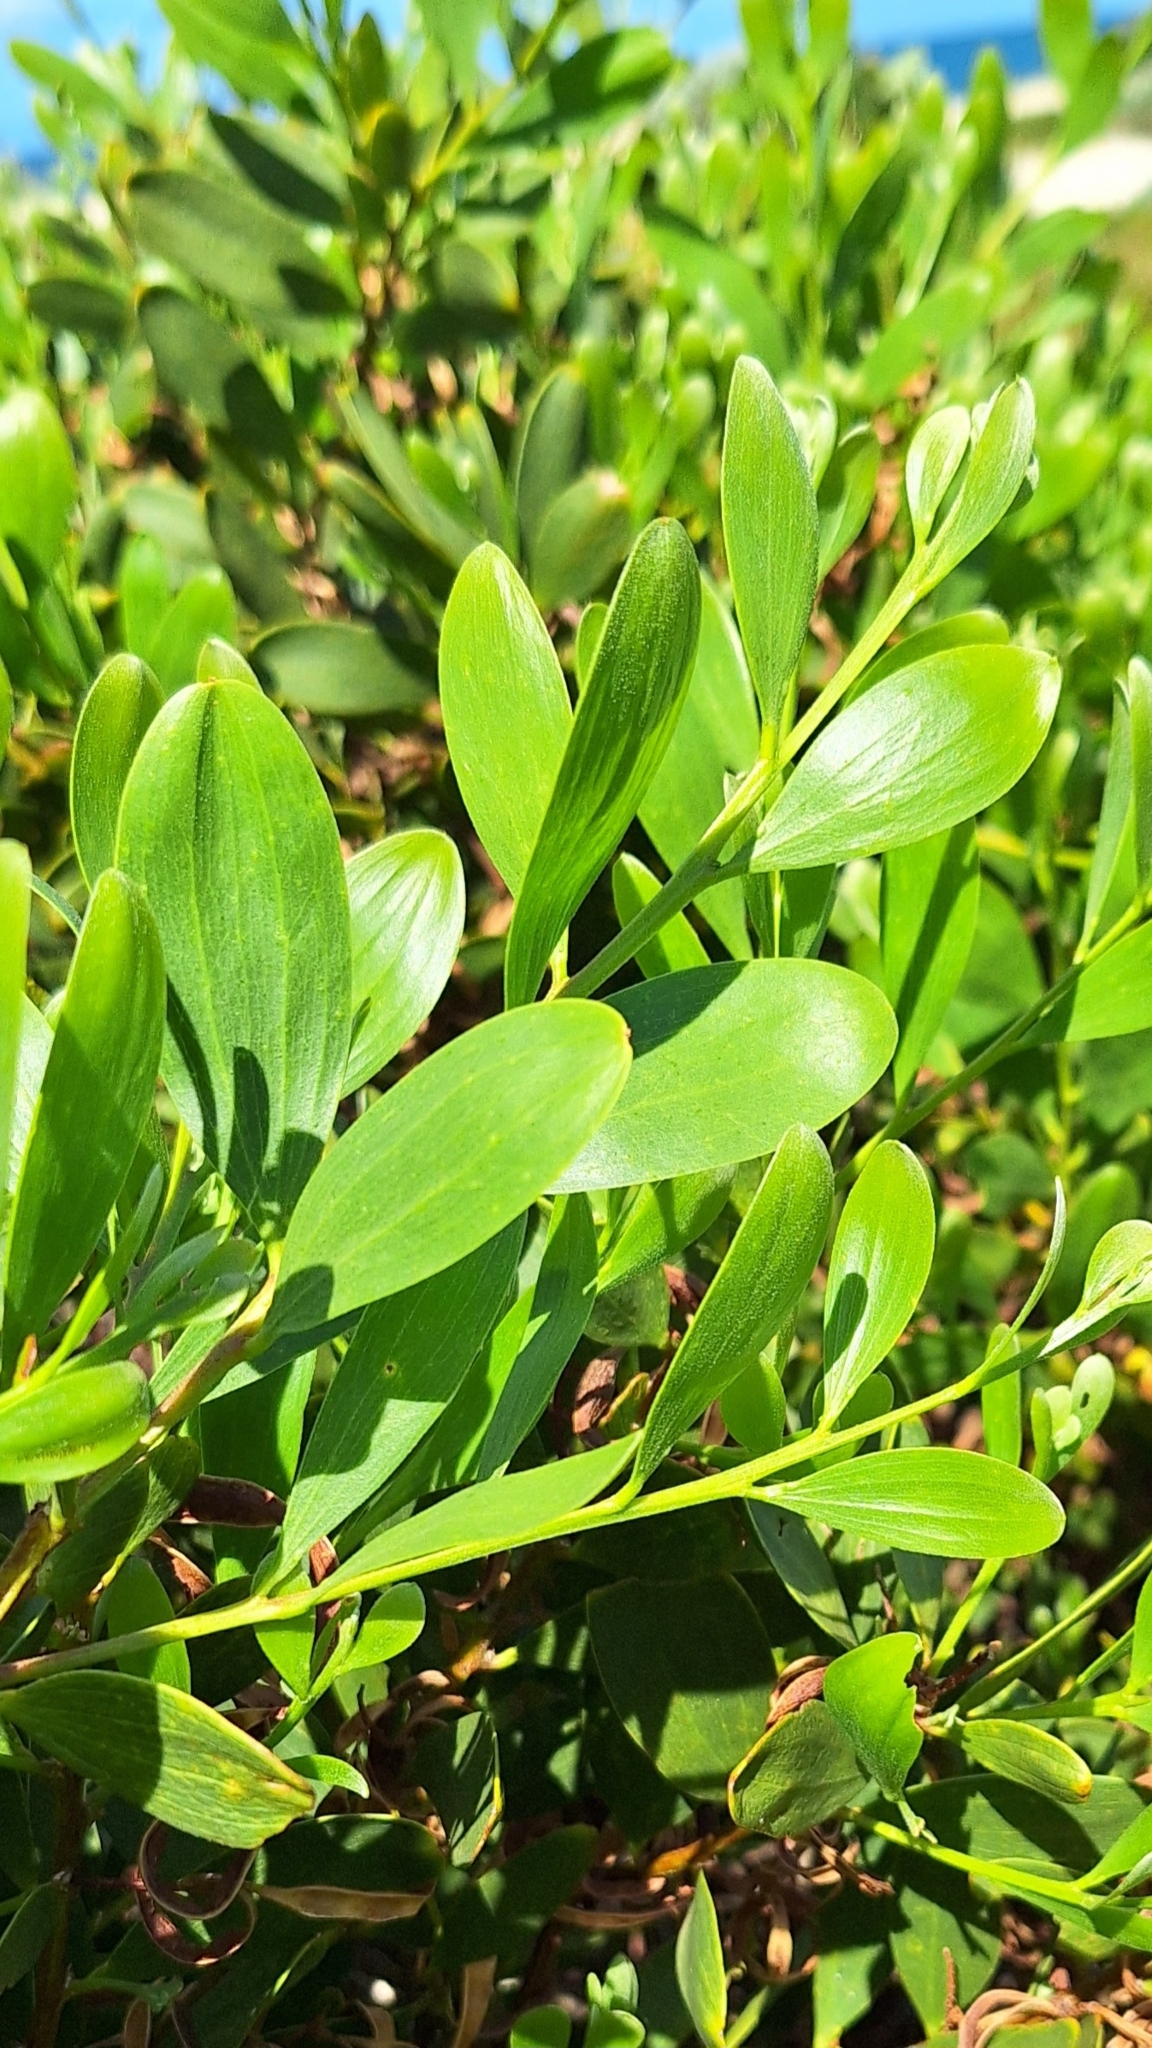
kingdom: Plantae
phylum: Tracheophyta
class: Magnoliopsida
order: Fabales
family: Fabaceae
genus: Acacia
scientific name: Acacia longifolia
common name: Sydney golden wattle
